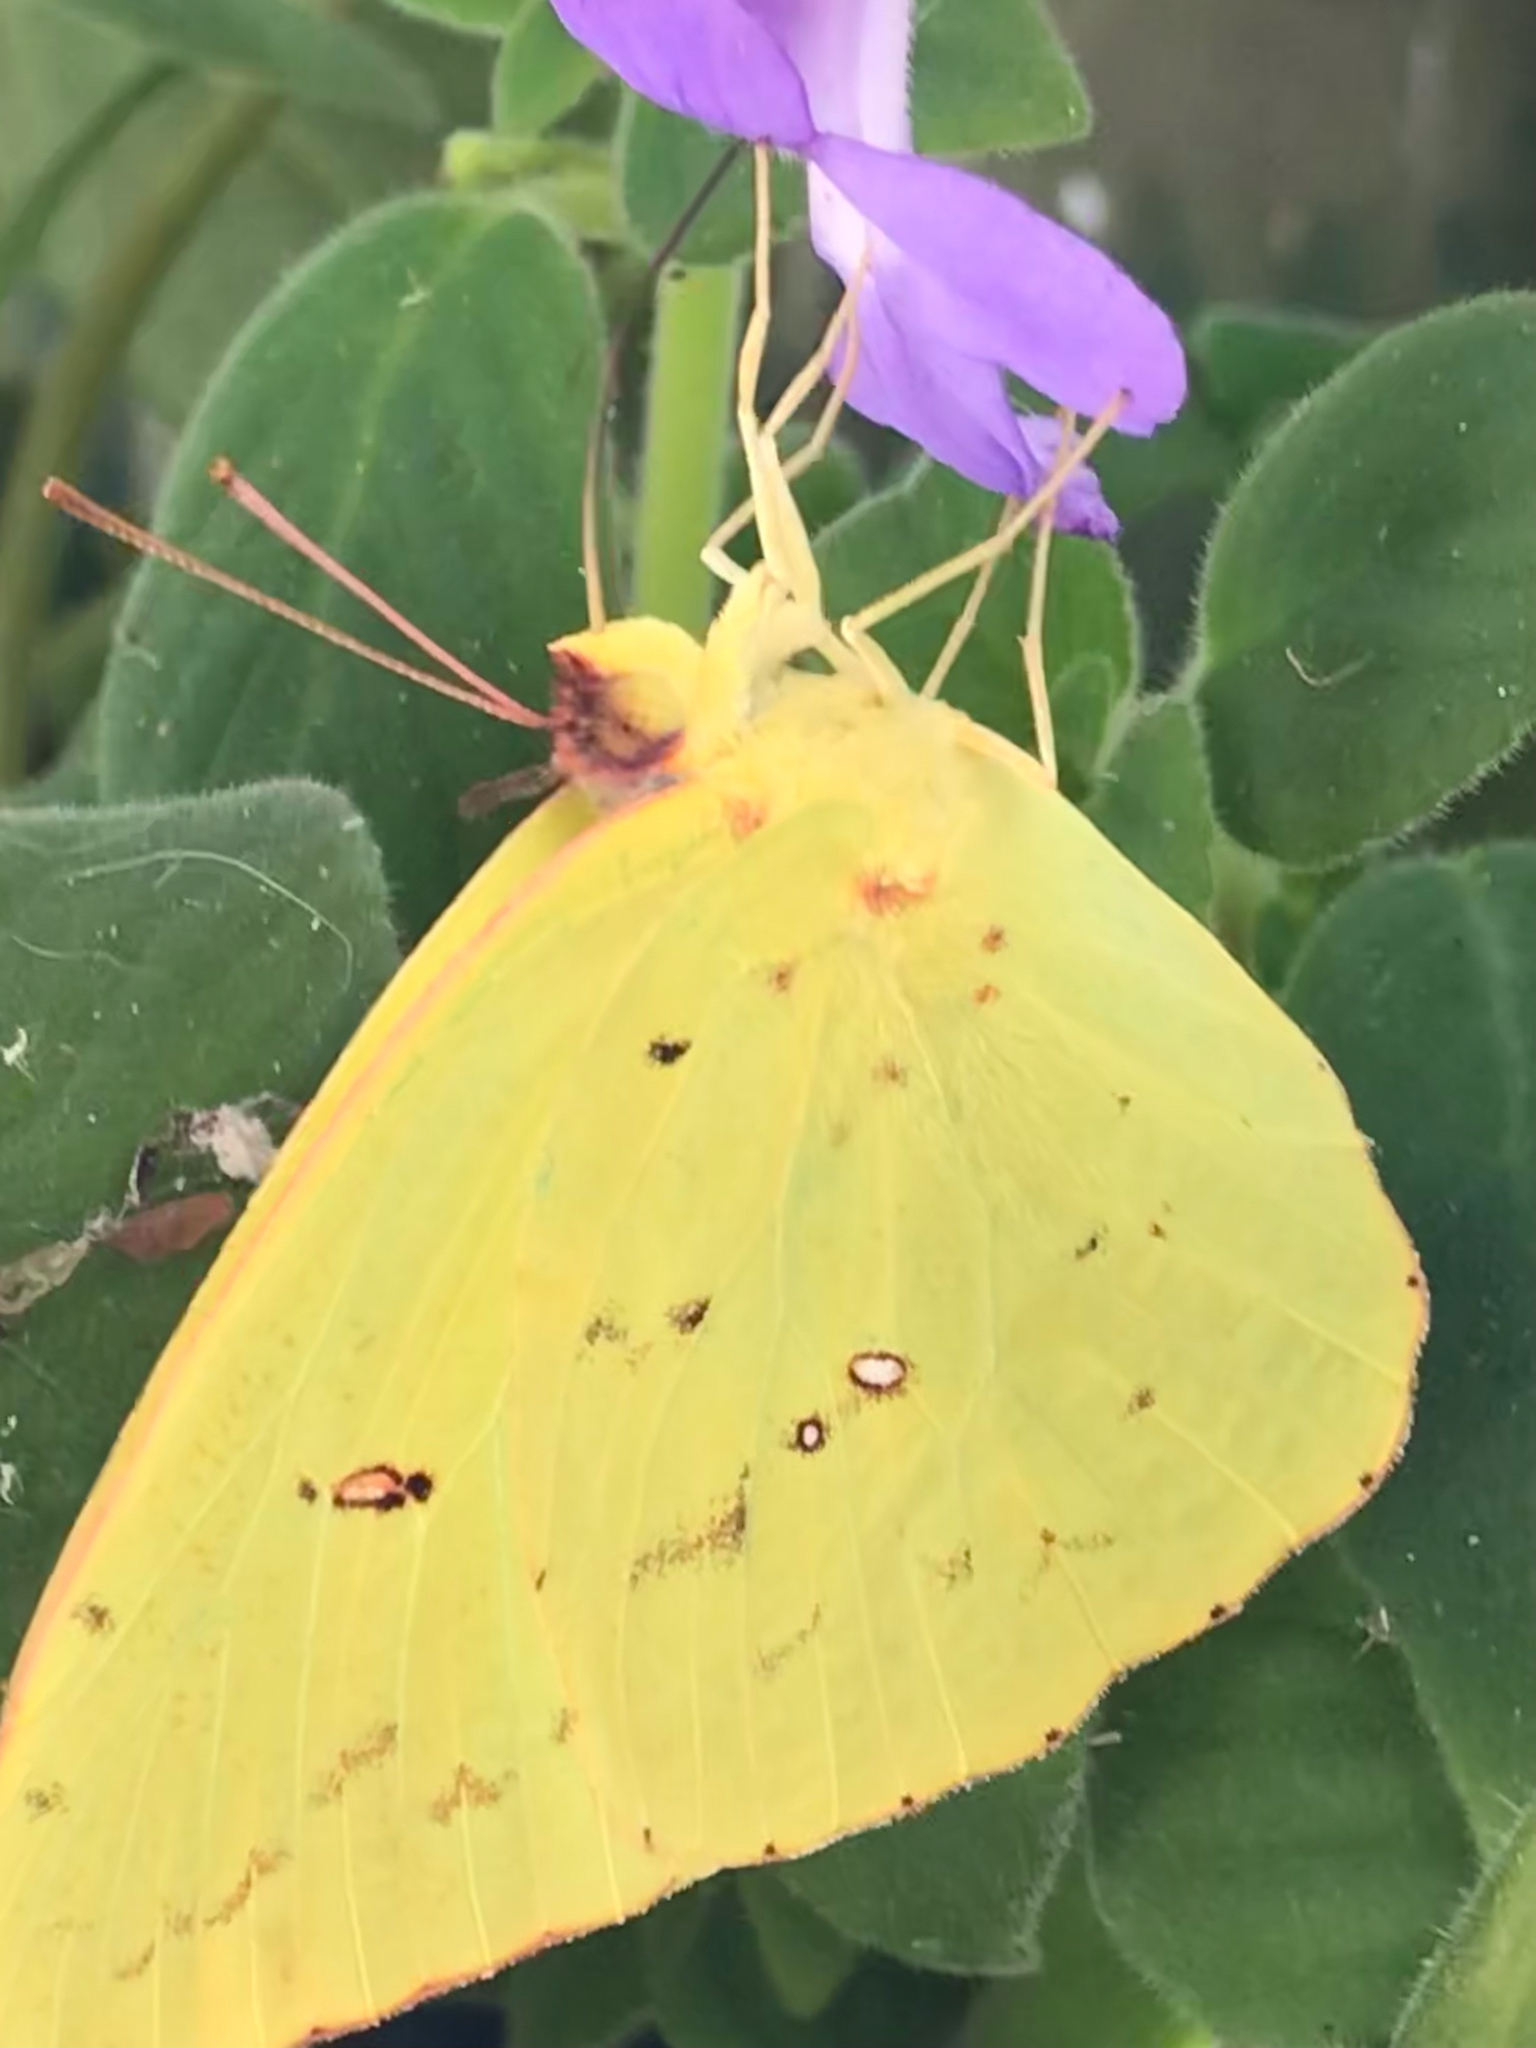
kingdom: Animalia
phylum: Arthropoda
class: Insecta
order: Lepidoptera
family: Pieridae
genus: Phoebis
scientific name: Phoebis sennae
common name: Cloudless sulphur
